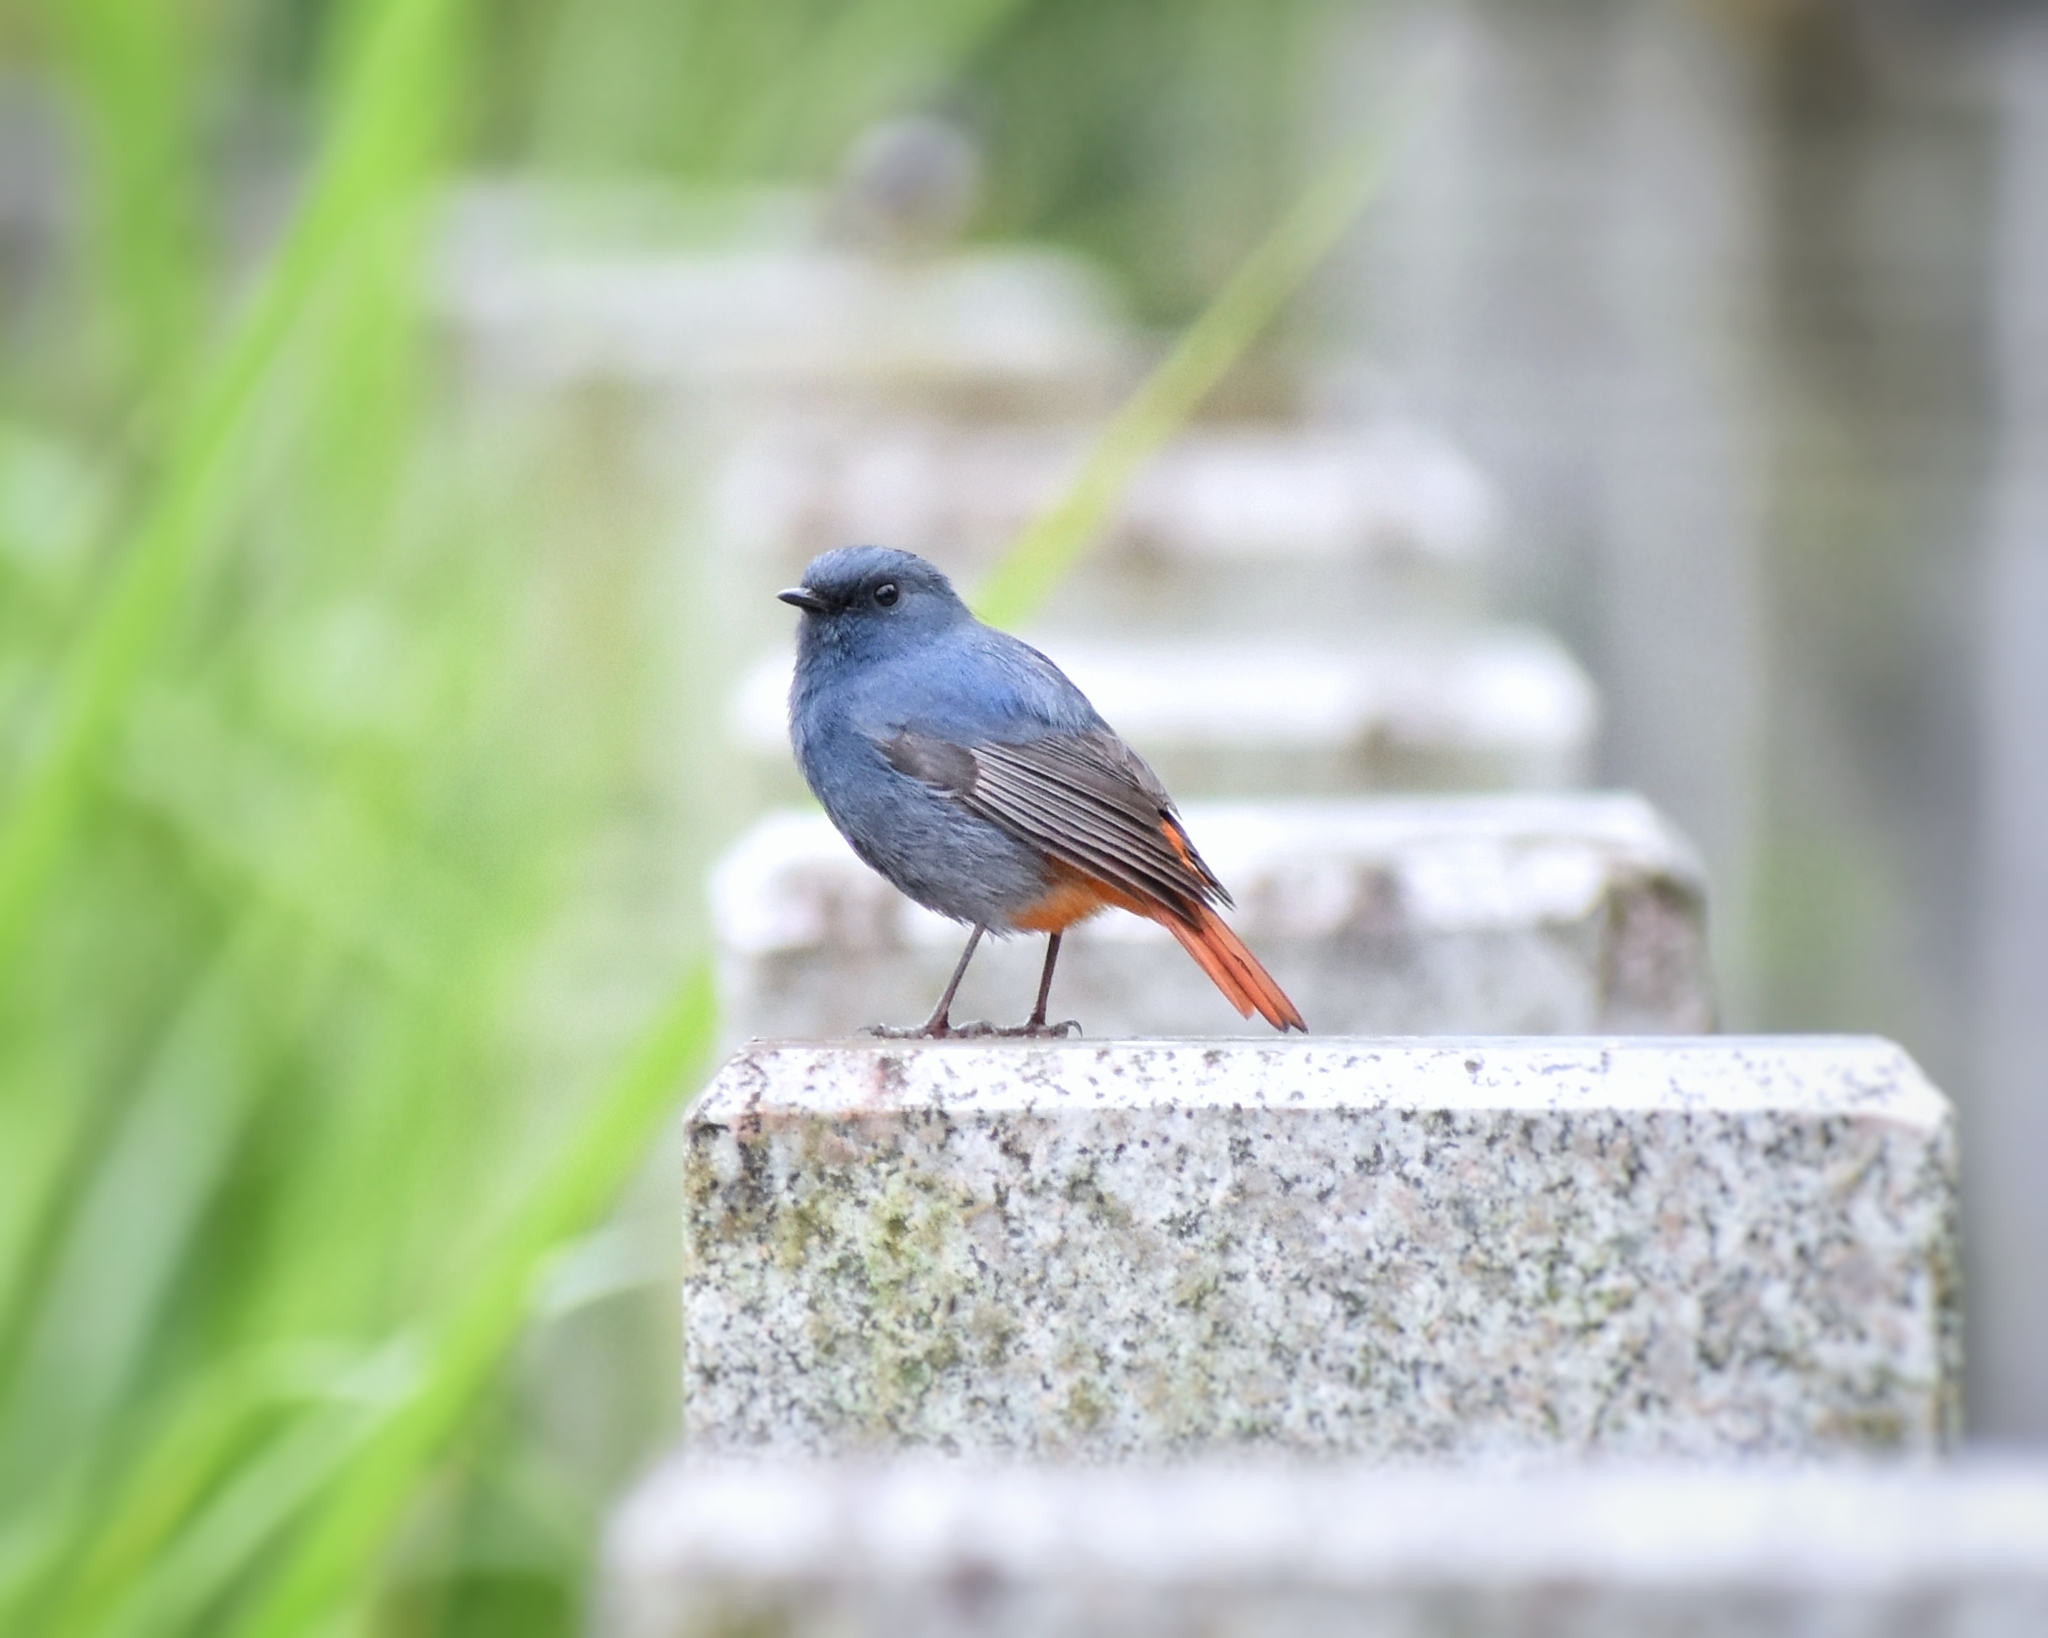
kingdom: Animalia
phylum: Chordata
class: Aves
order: Passeriformes
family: Muscicapidae
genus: Phoenicurus
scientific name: Phoenicurus fuliginosus
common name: Plumbeous water redstart
